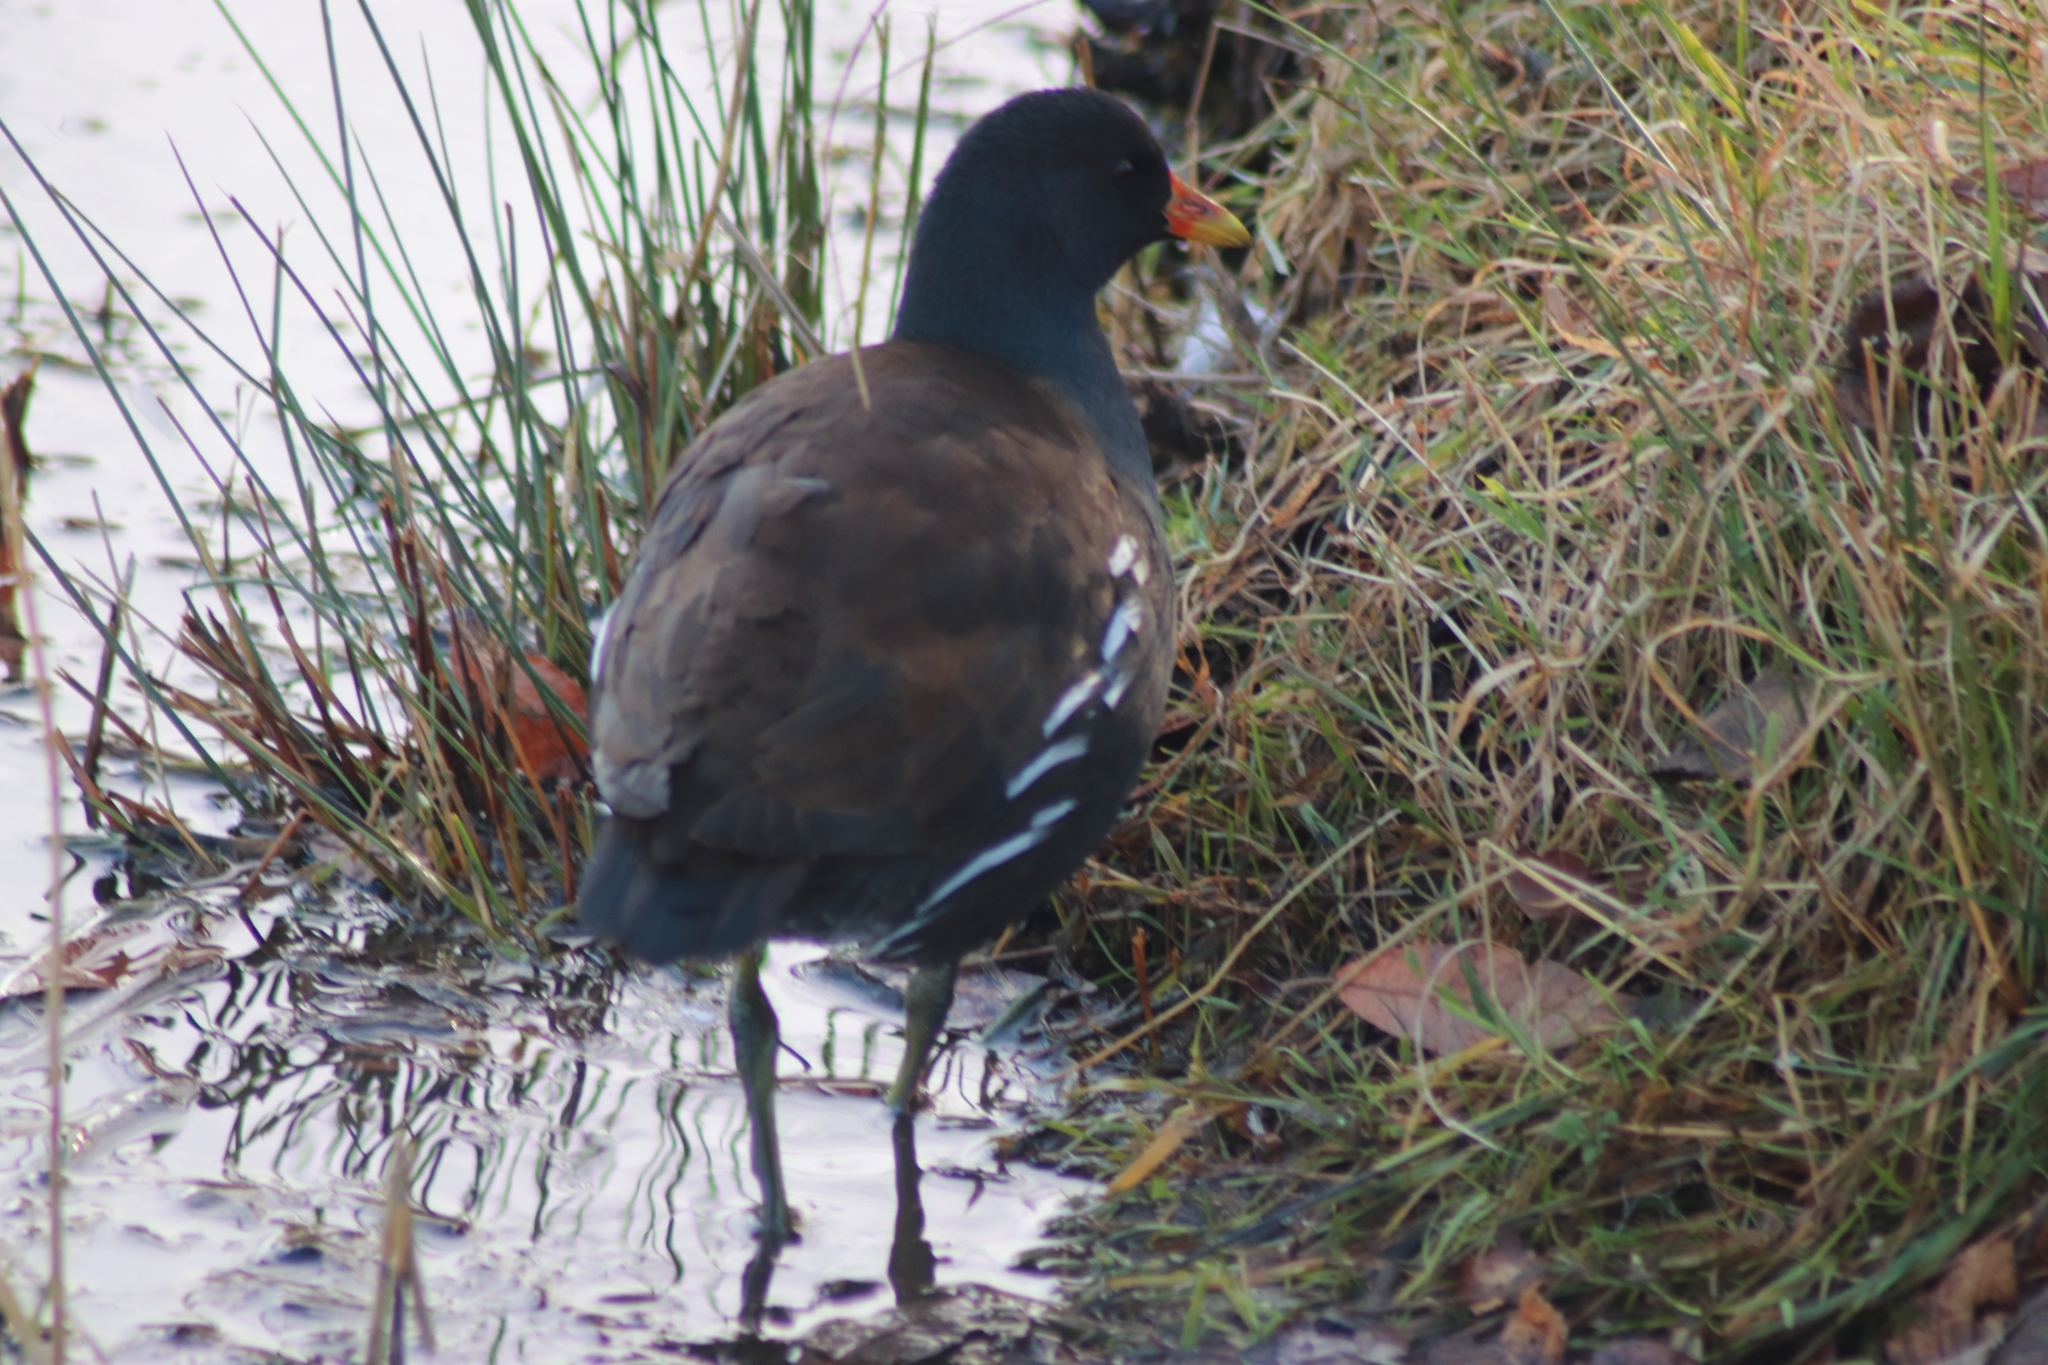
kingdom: Animalia
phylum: Chordata
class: Aves
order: Gruiformes
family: Rallidae
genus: Gallinula
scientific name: Gallinula chloropus
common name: Common moorhen
